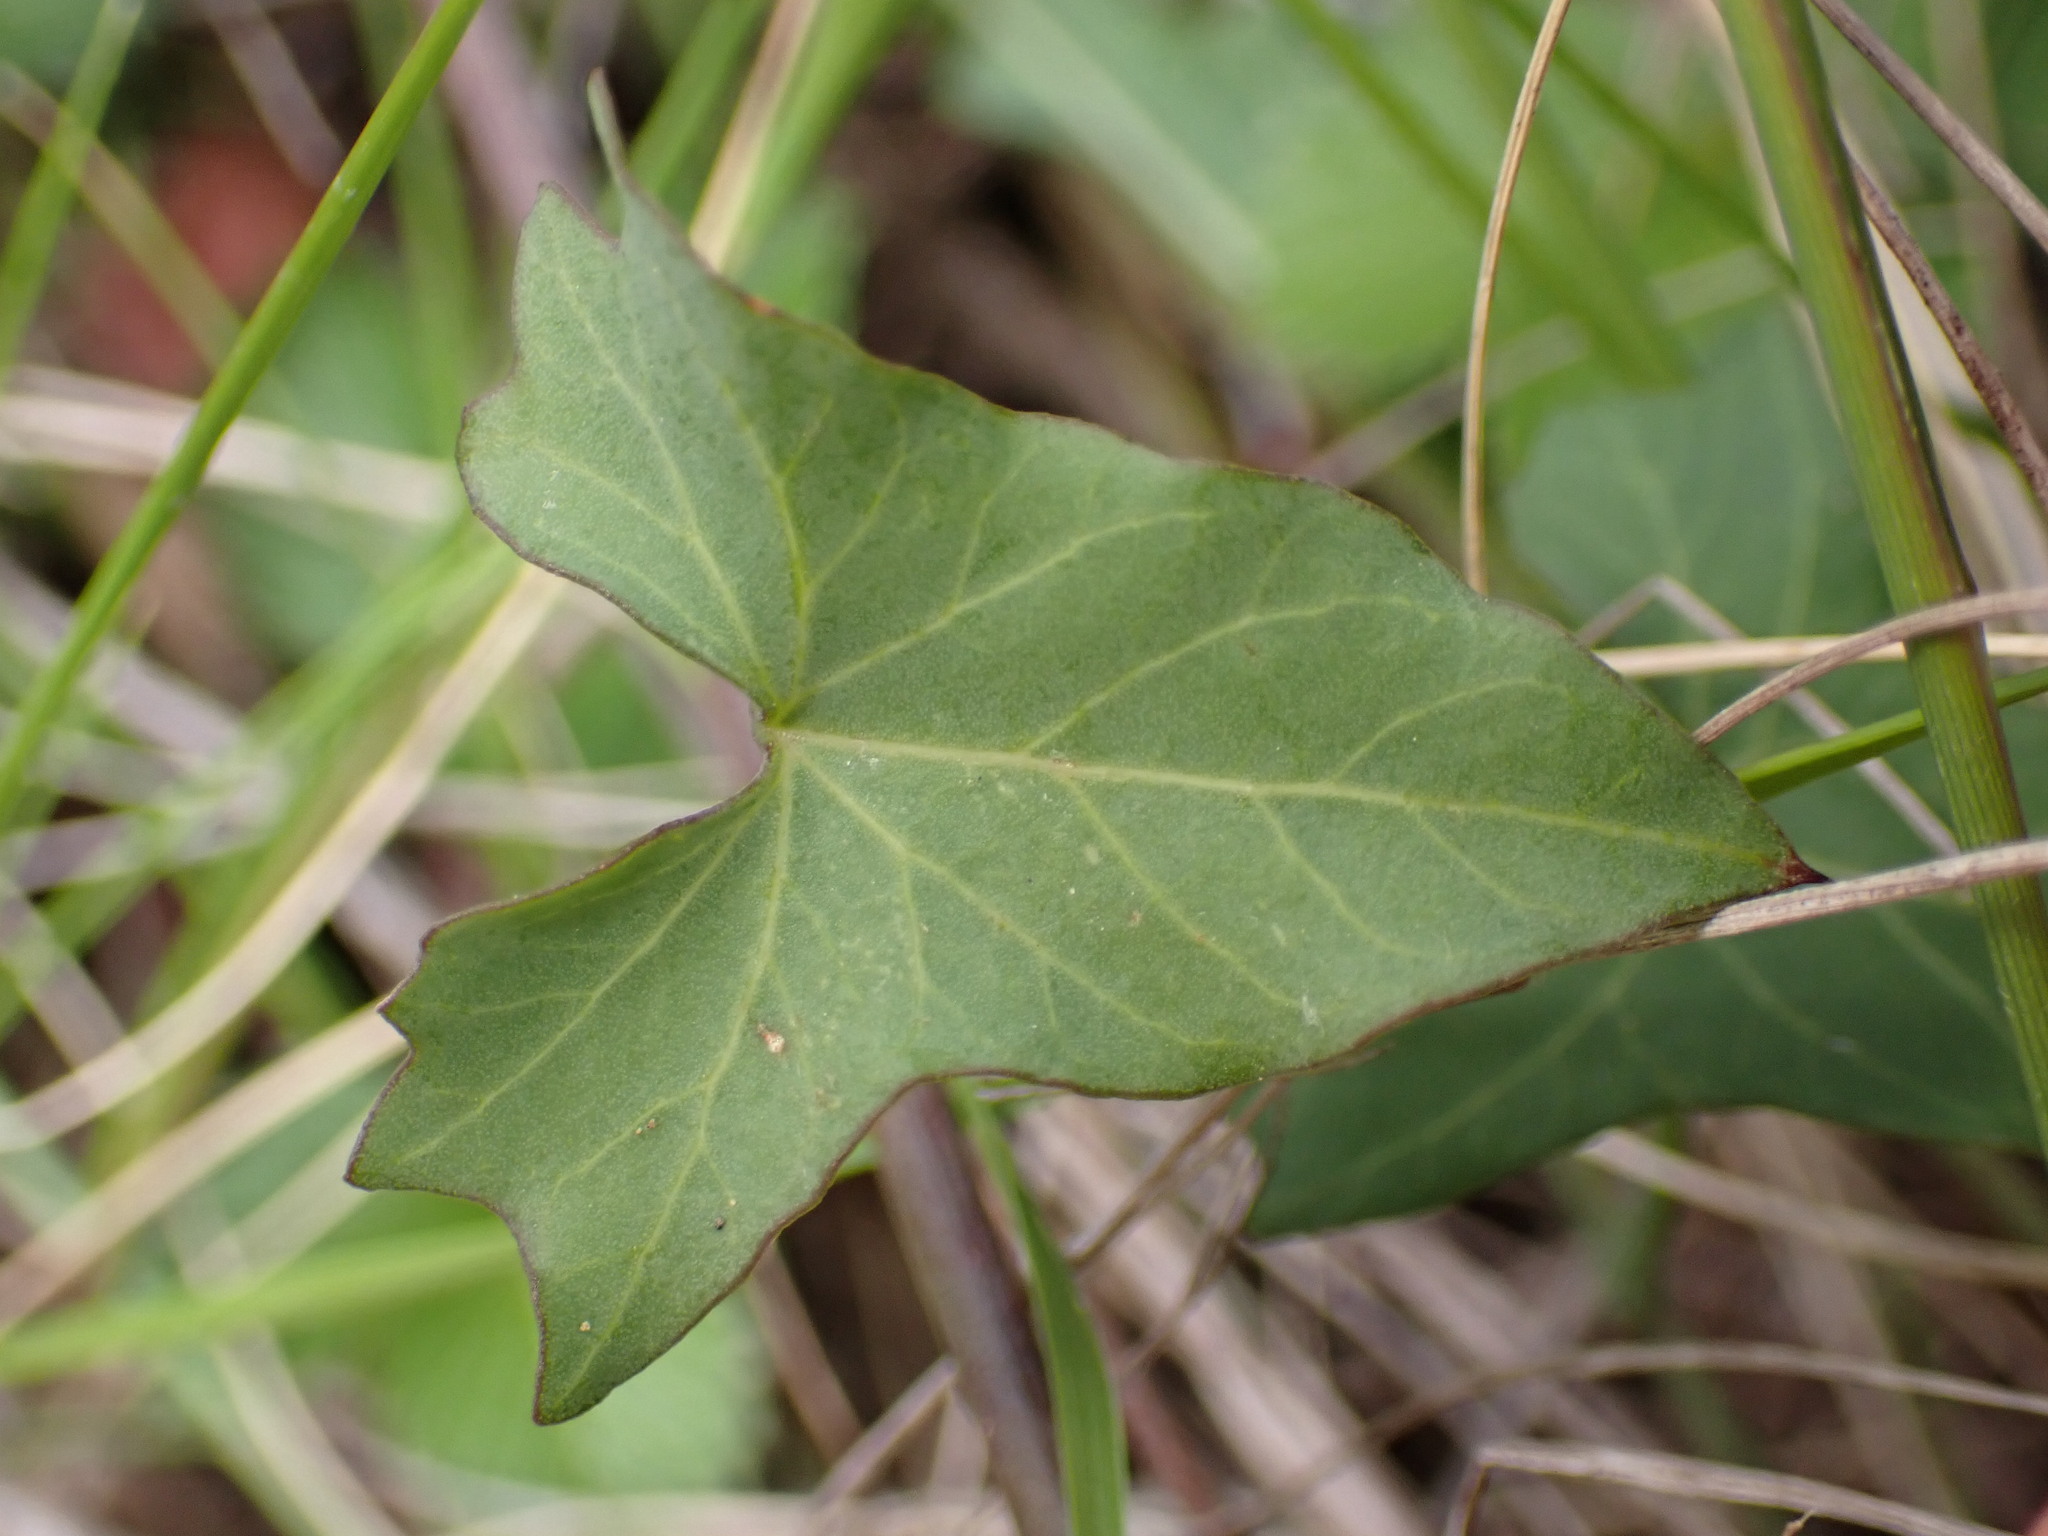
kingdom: Plantae
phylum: Tracheophyta
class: Magnoliopsida
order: Solanales
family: Convolvulaceae
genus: Calystegia
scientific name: Calystegia purpurata
